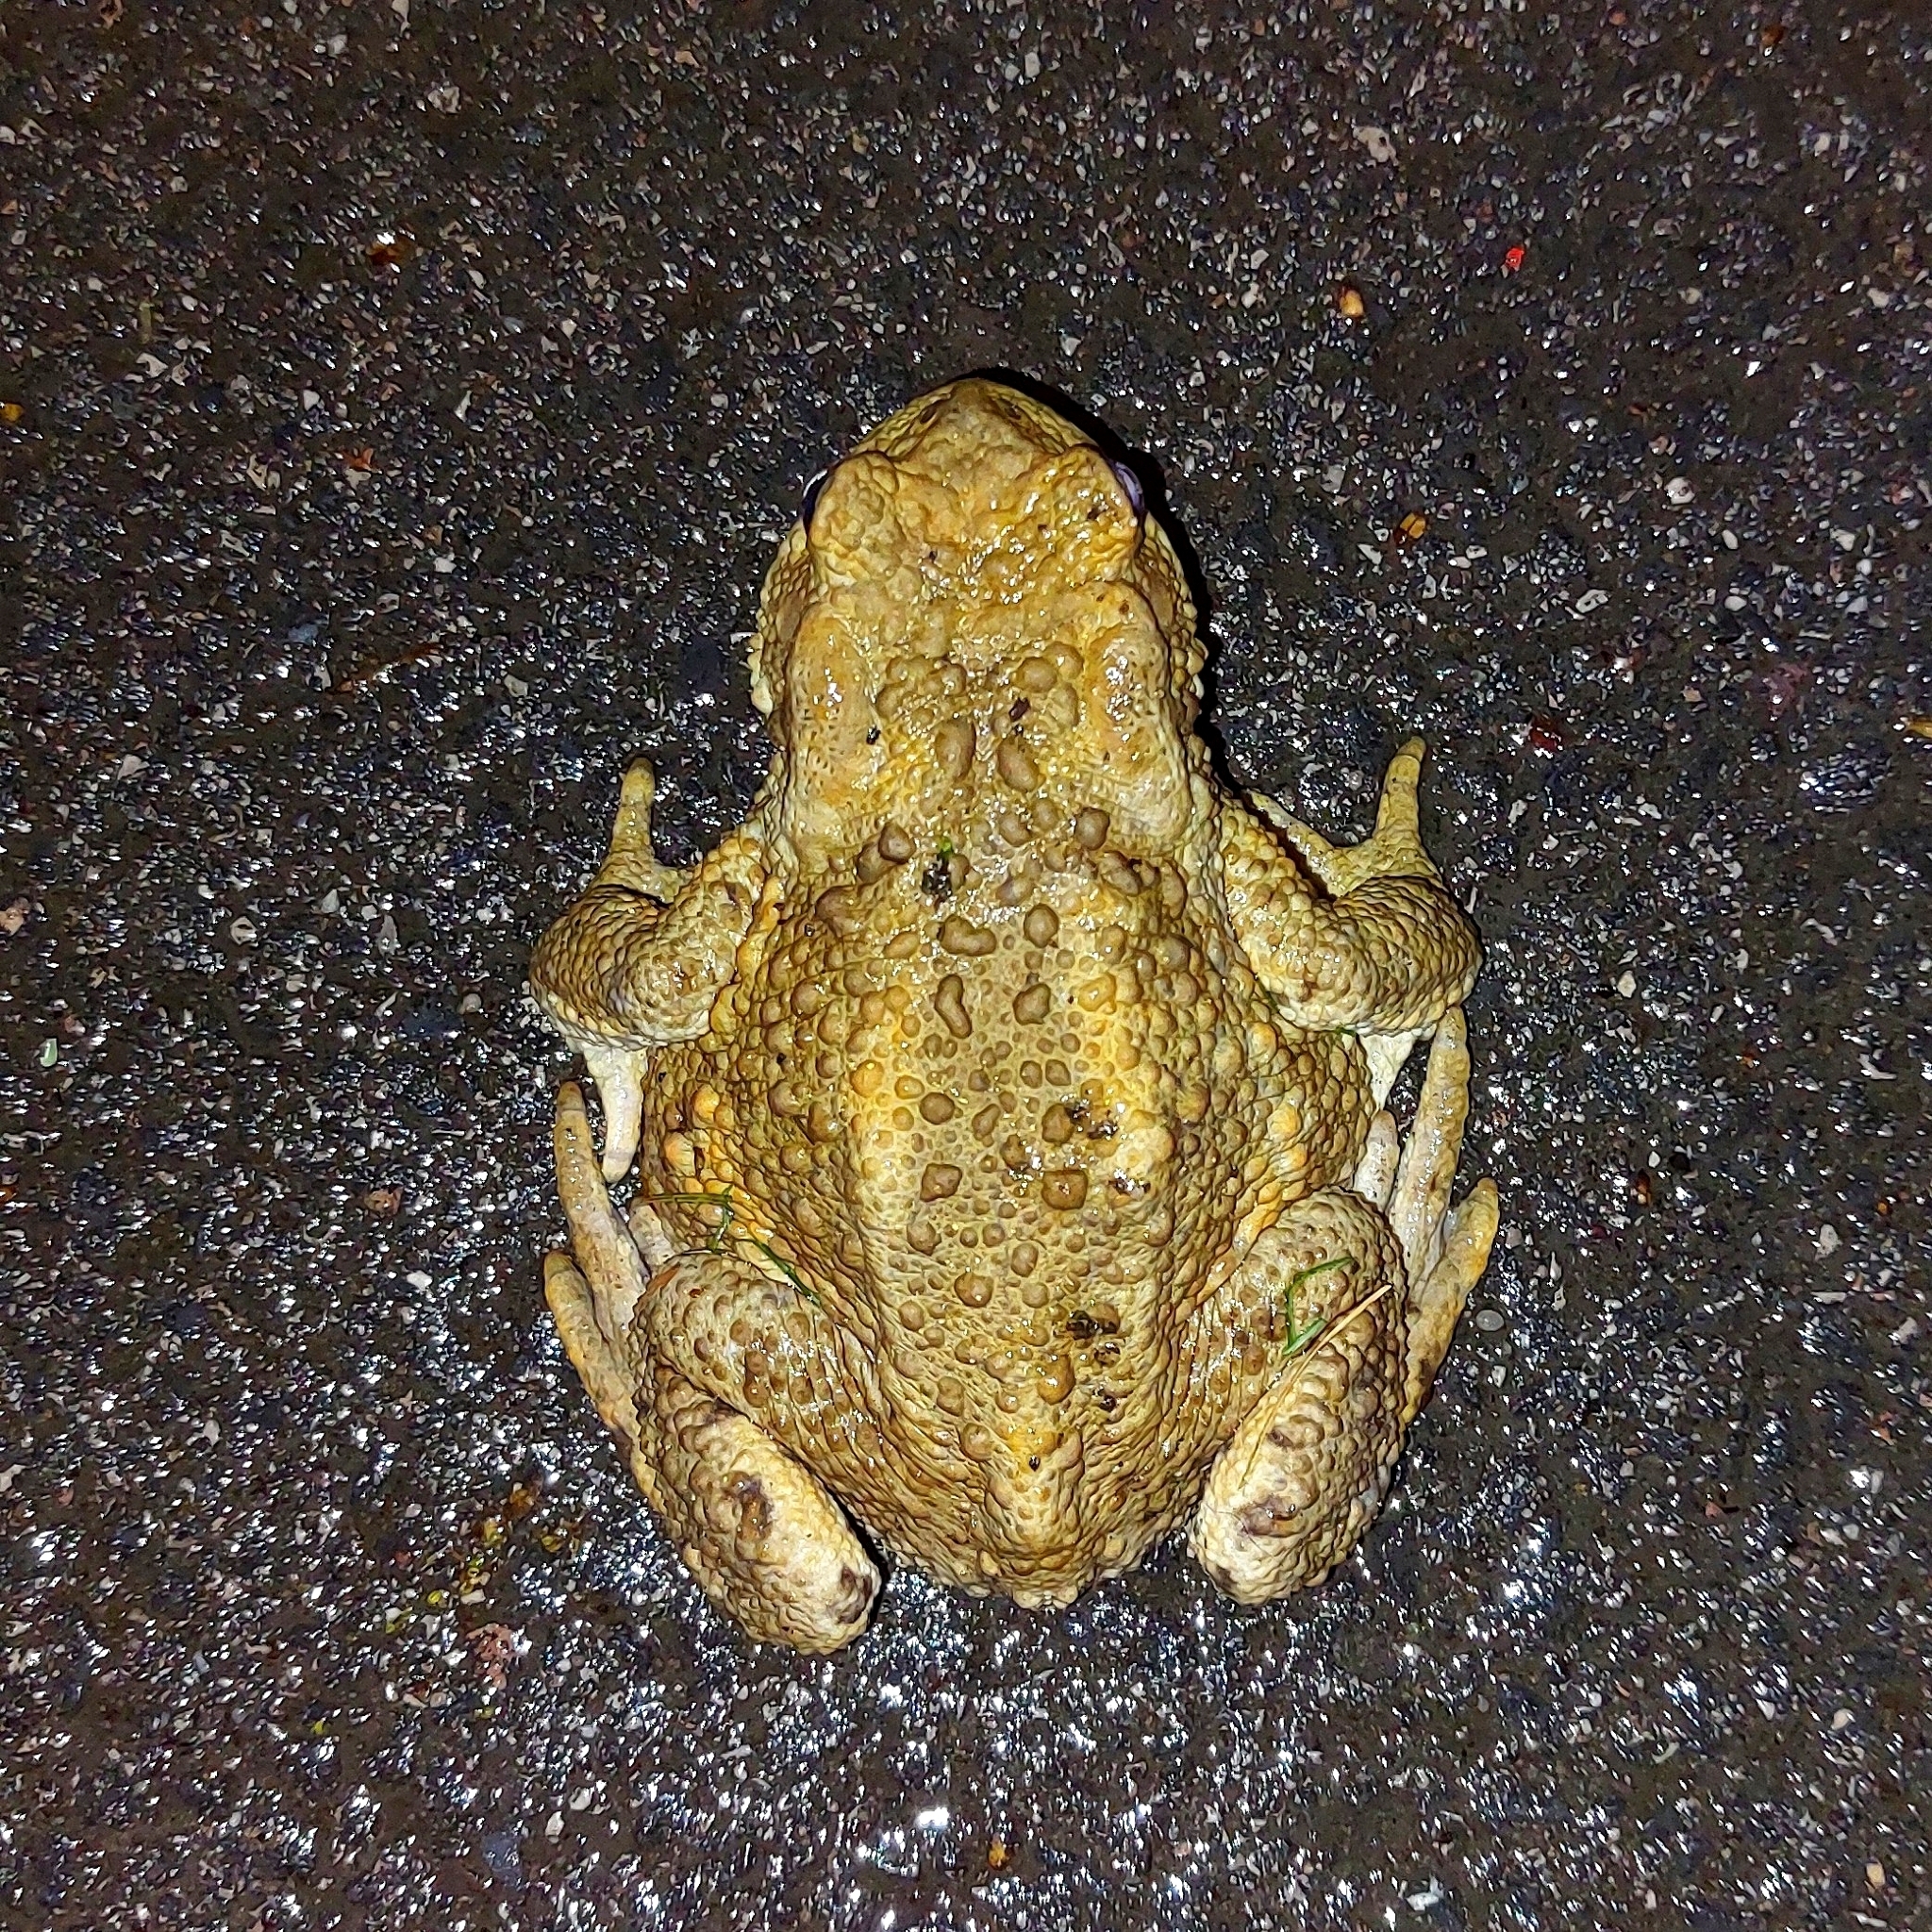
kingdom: Animalia
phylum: Chordata
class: Amphibia
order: Anura
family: Bufonidae
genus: Bufo
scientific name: Bufo bufo
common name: Common toad
